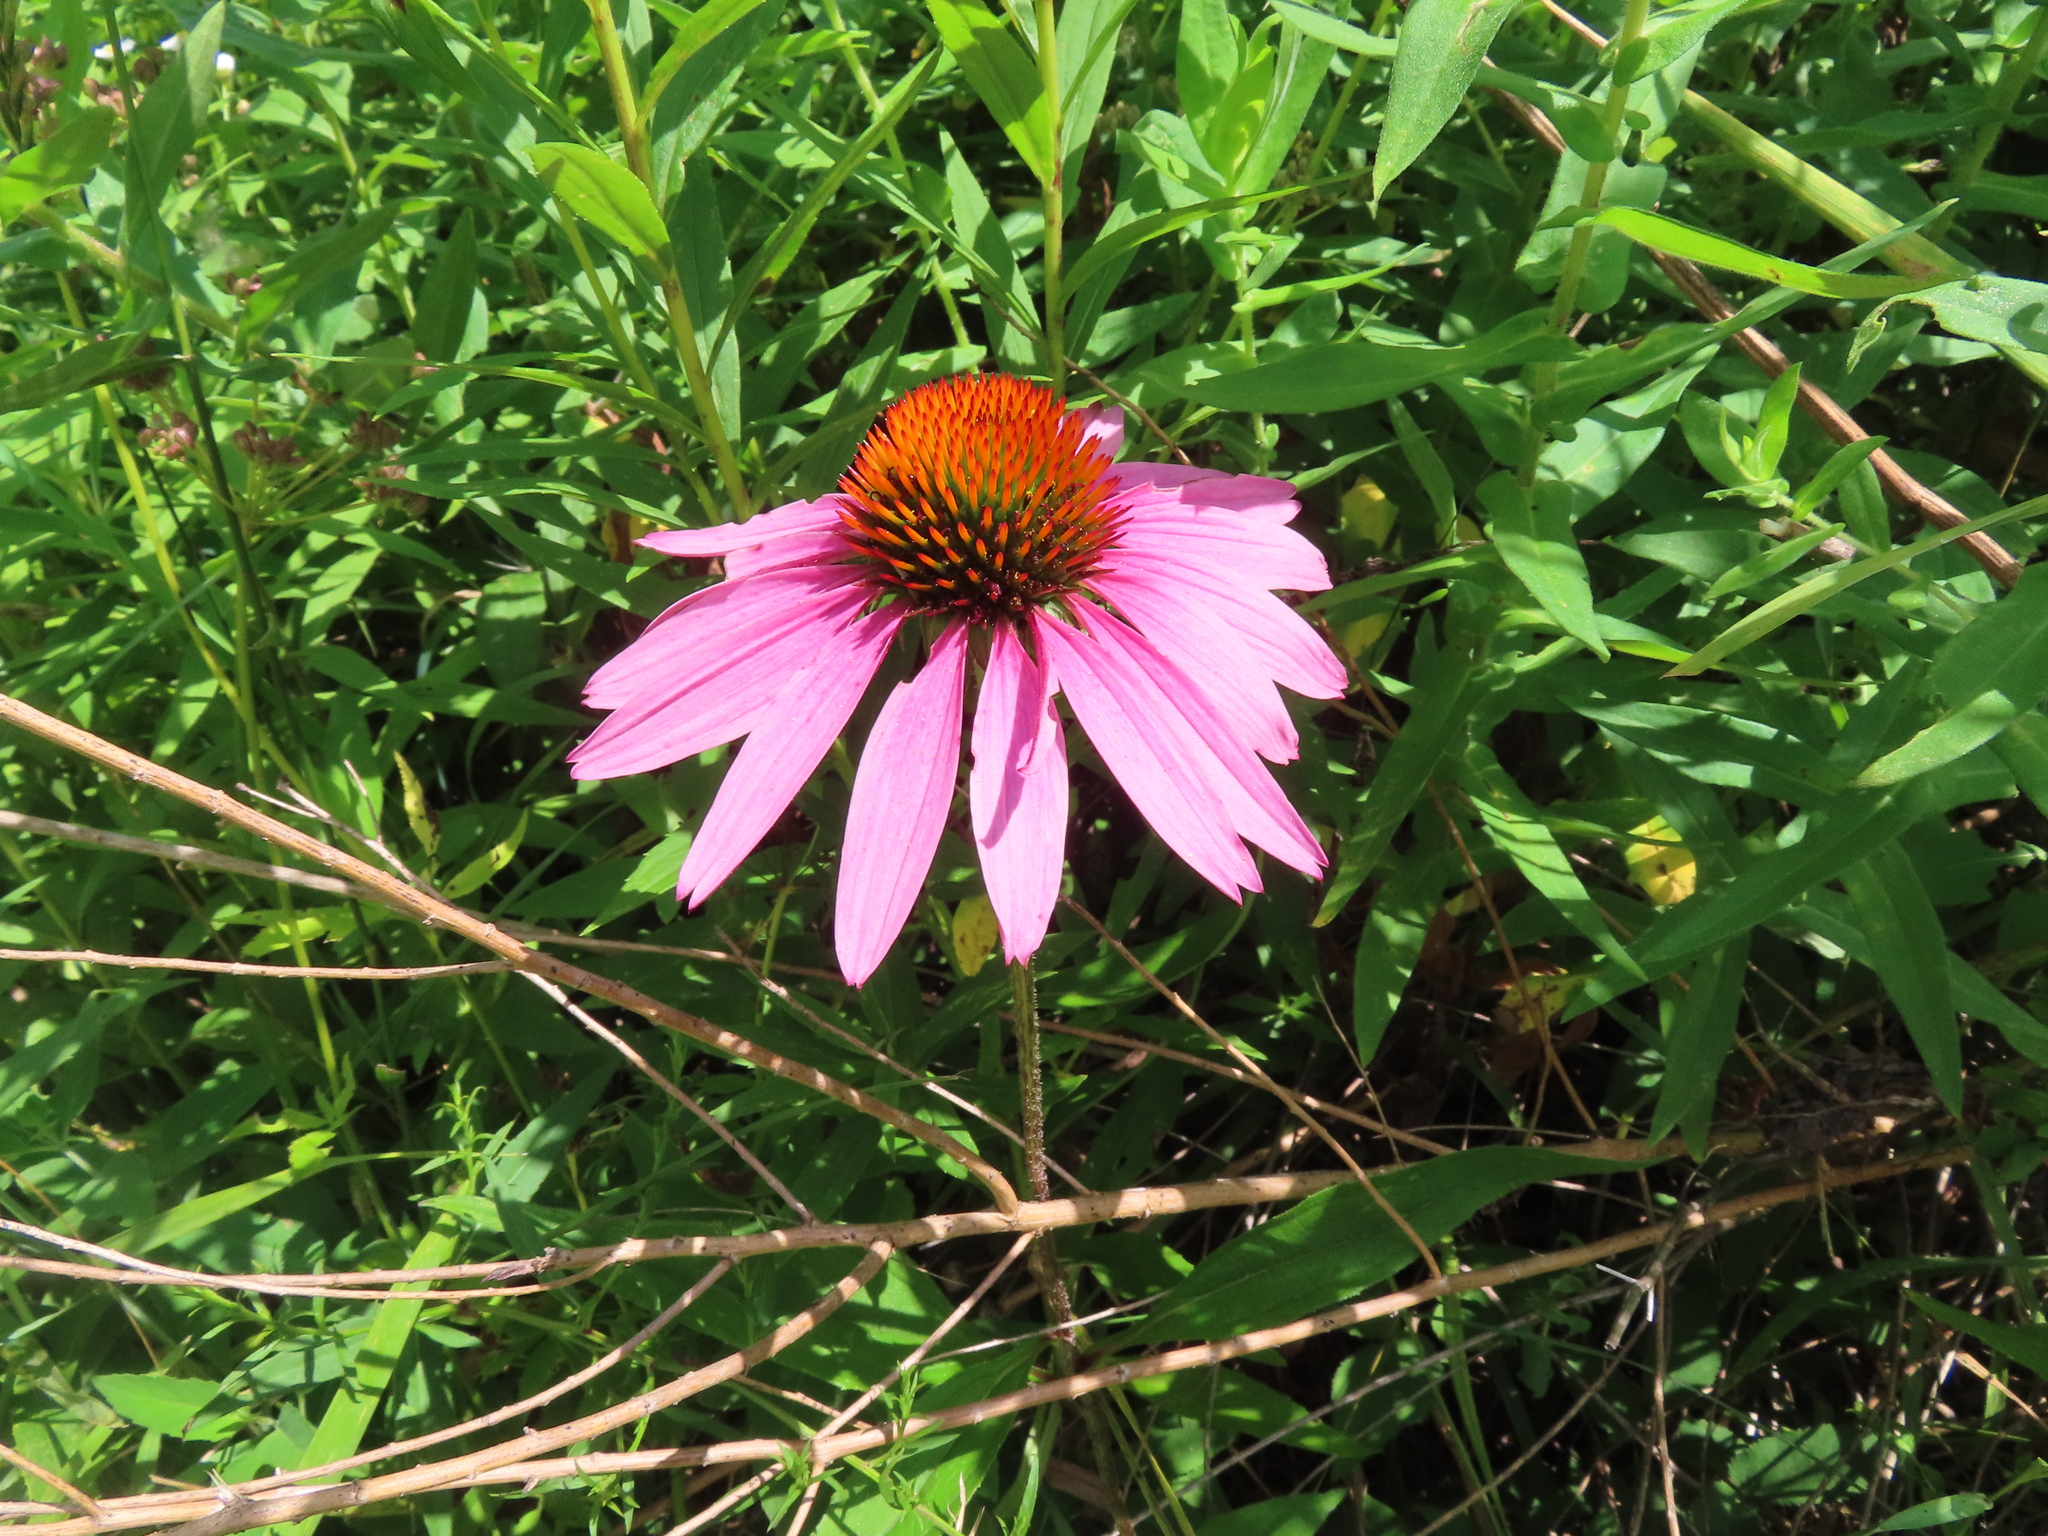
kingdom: Plantae
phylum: Tracheophyta
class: Magnoliopsida
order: Asterales
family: Asteraceae
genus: Echinacea
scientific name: Echinacea purpurea
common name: Broad-leaved purple coneflower
